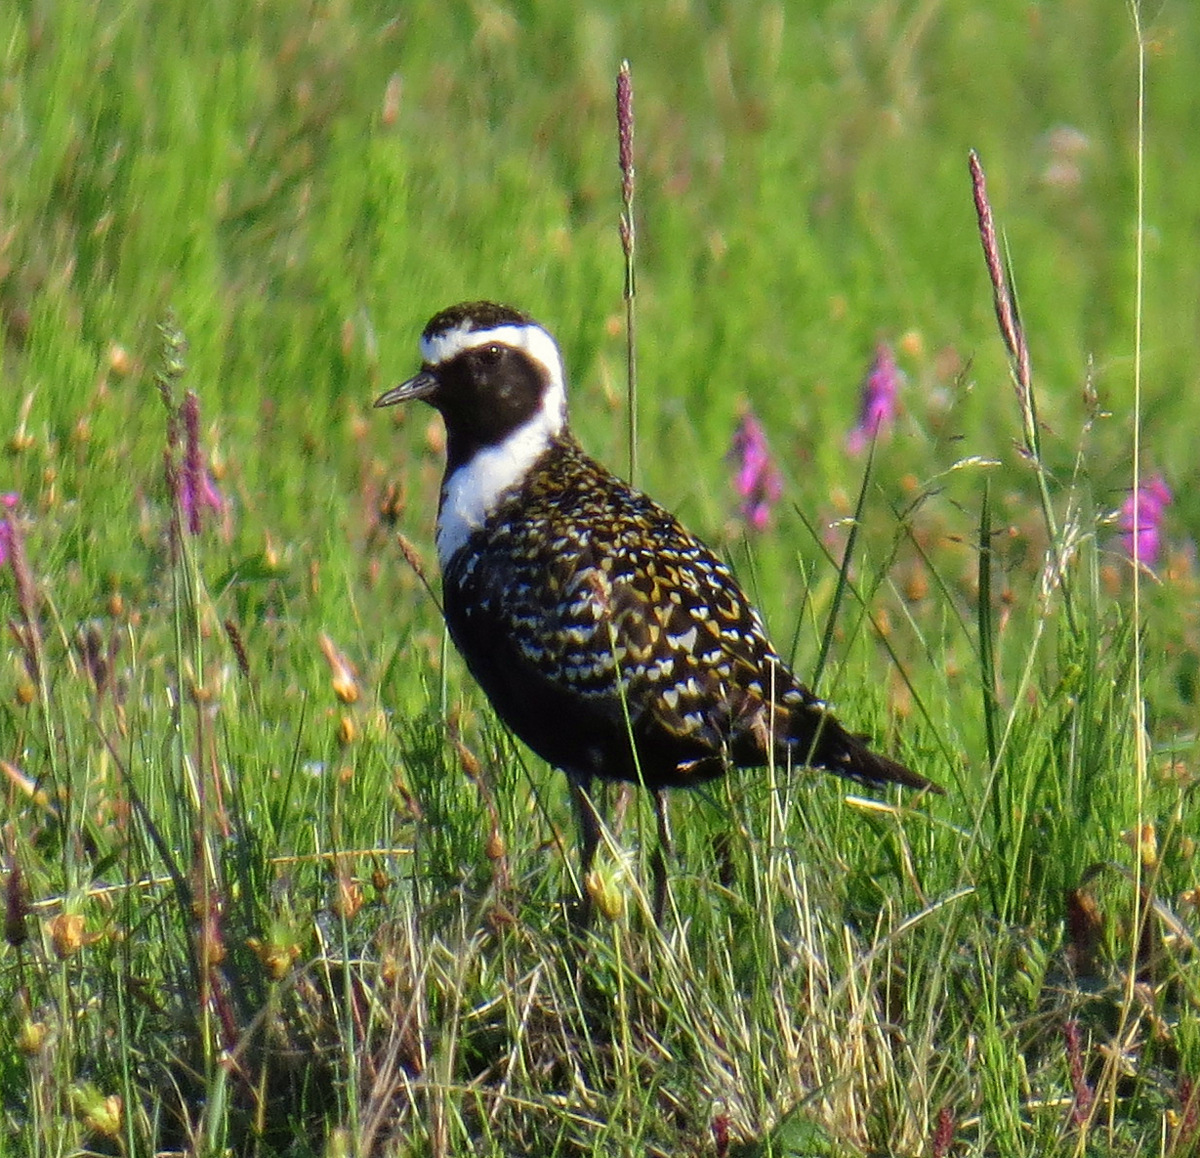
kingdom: Animalia
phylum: Chordata
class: Aves
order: Charadriiformes
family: Charadriidae
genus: Pluvialis
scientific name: Pluvialis dominica
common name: American golden plover
